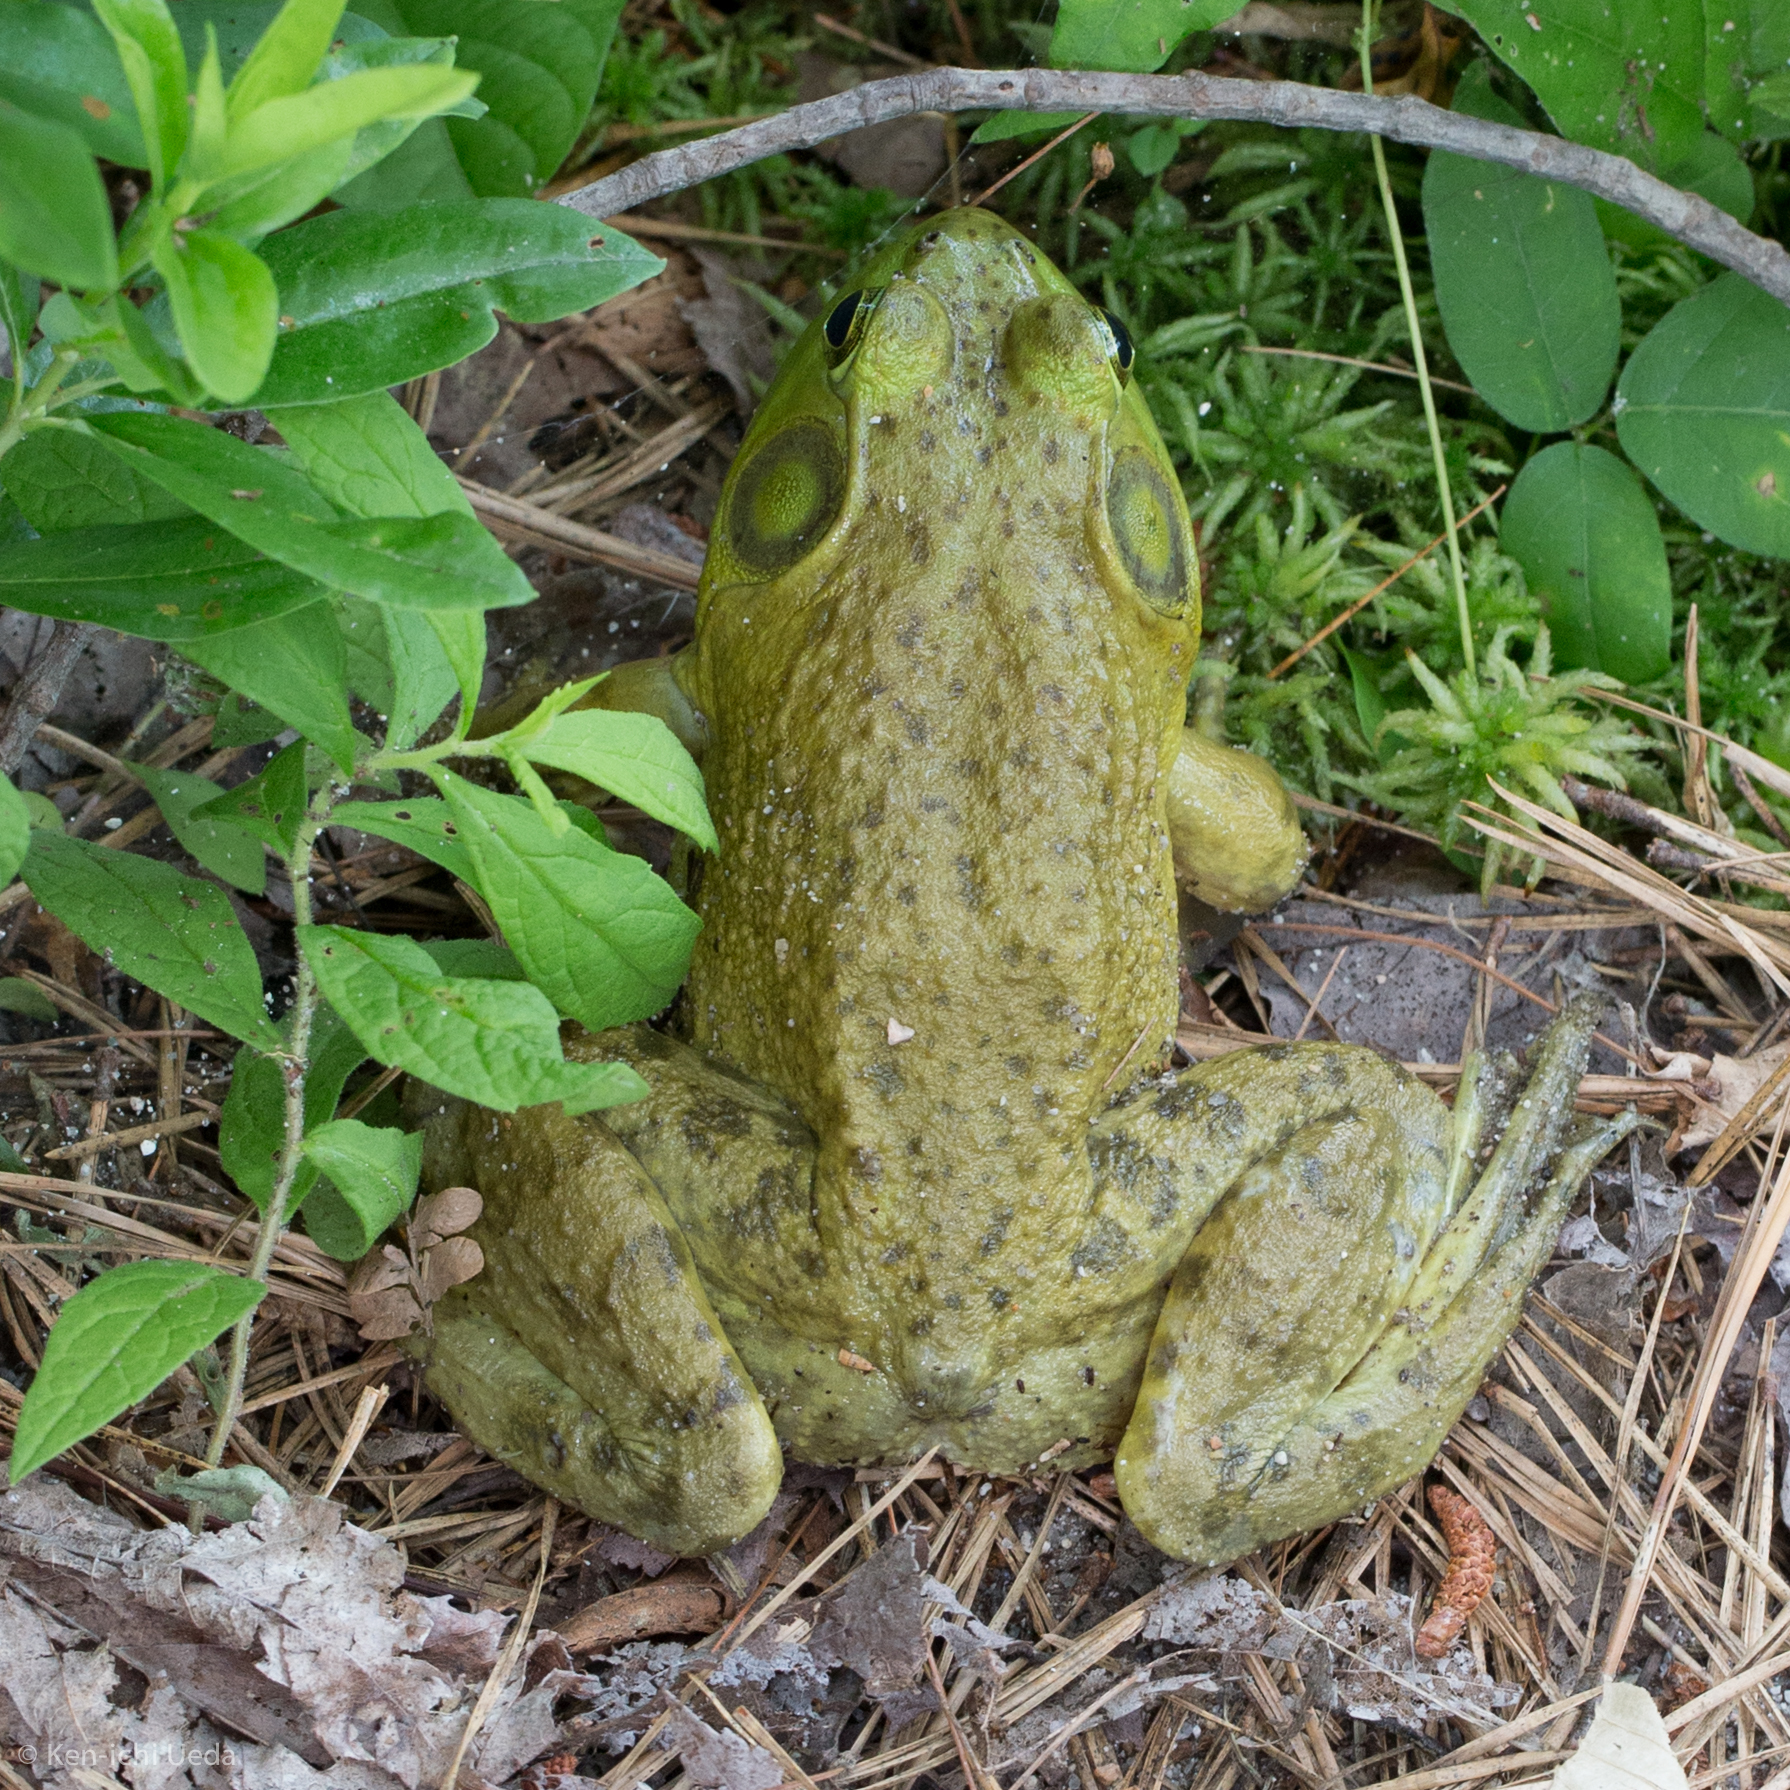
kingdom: Animalia
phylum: Chordata
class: Amphibia
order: Anura
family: Ranidae
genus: Lithobates
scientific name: Lithobates catesbeianus
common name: American bullfrog
